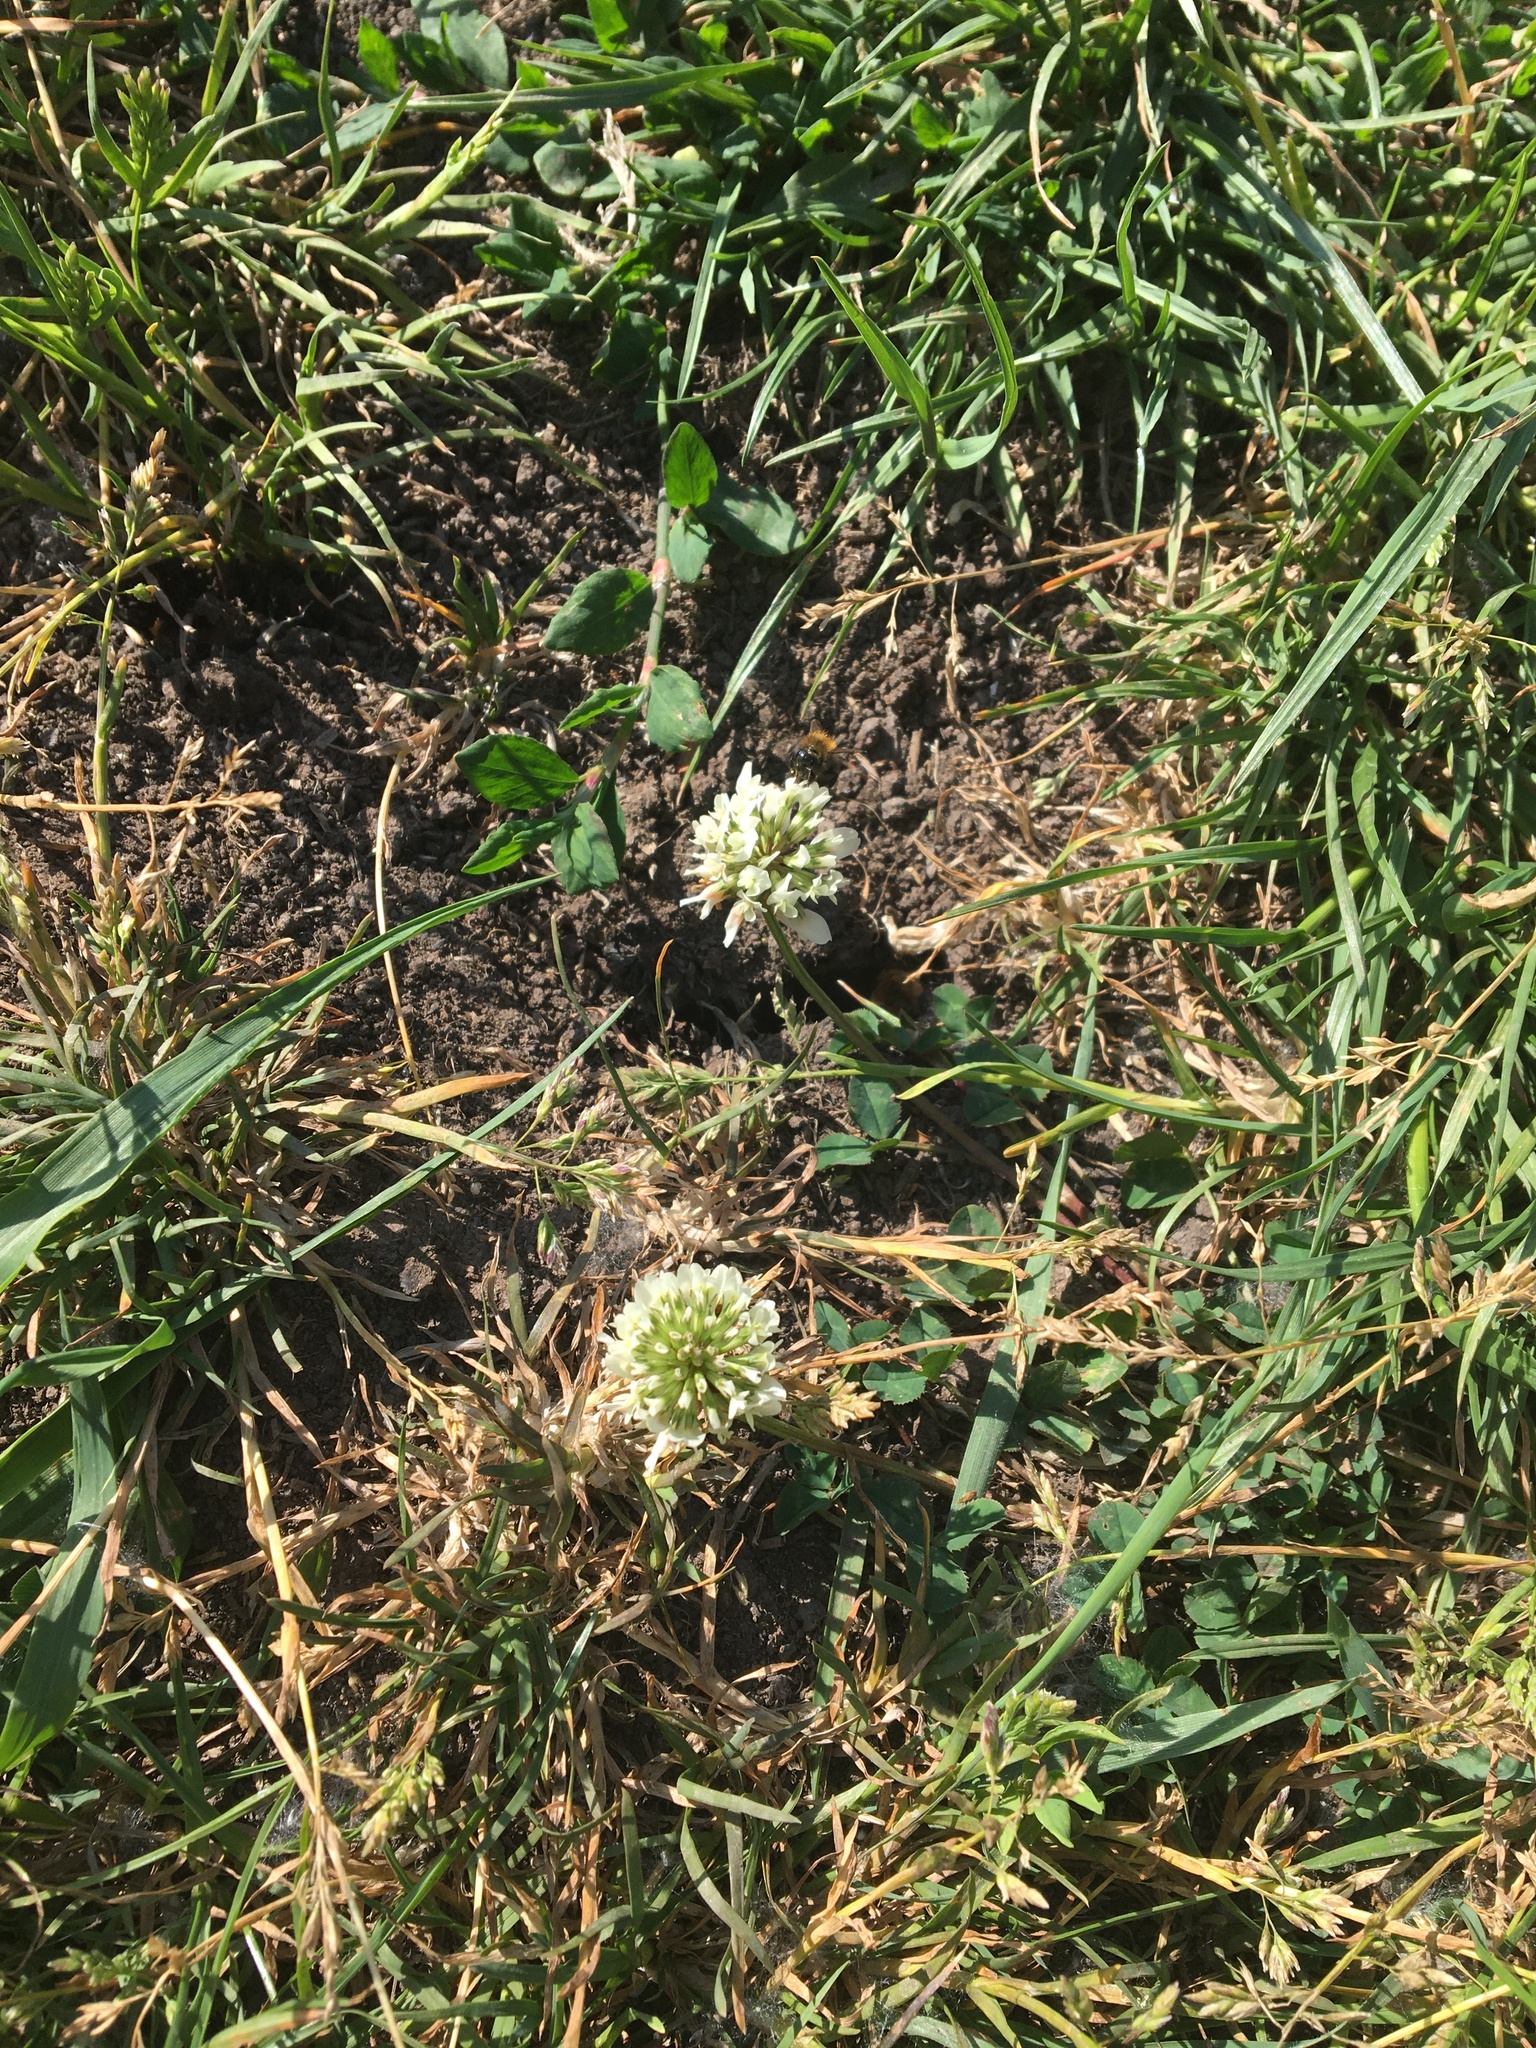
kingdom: Plantae
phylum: Tracheophyta
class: Magnoliopsida
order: Fabales
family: Fabaceae
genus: Trifolium
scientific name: Trifolium repens
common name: White clover
